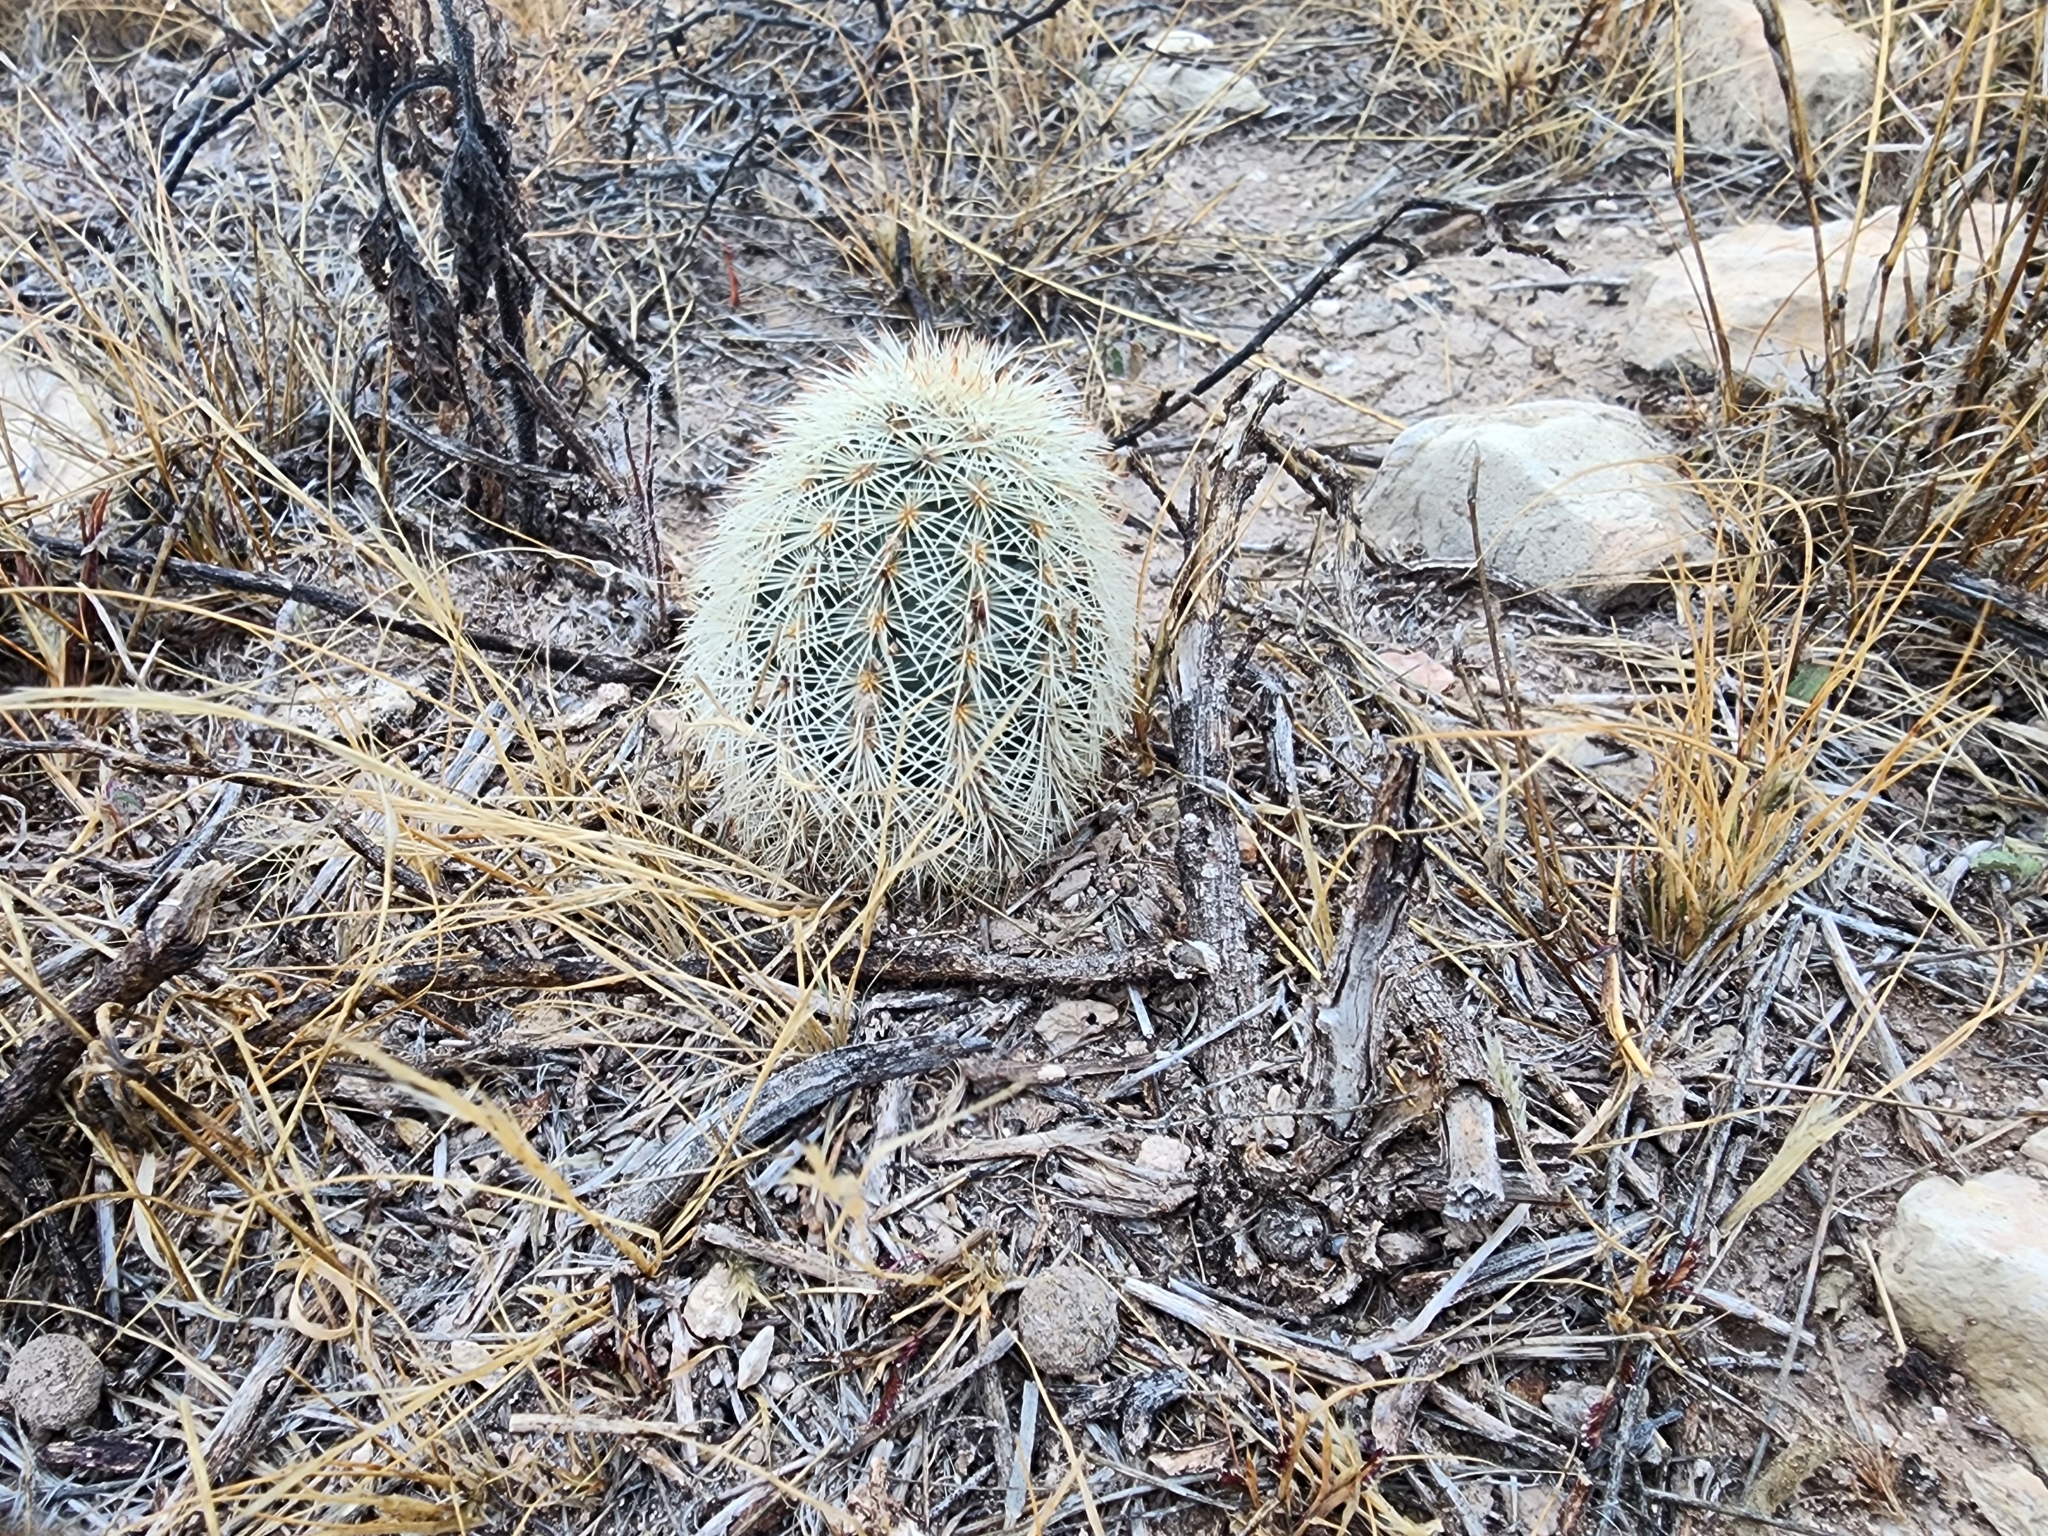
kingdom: Plantae
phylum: Tracheophyta
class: Magnoliopsida
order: Caryophyllales
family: Cactaceae
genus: Echinocereus
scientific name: Echinocereus dasyacanthus
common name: Spiny hedgehog cactus
